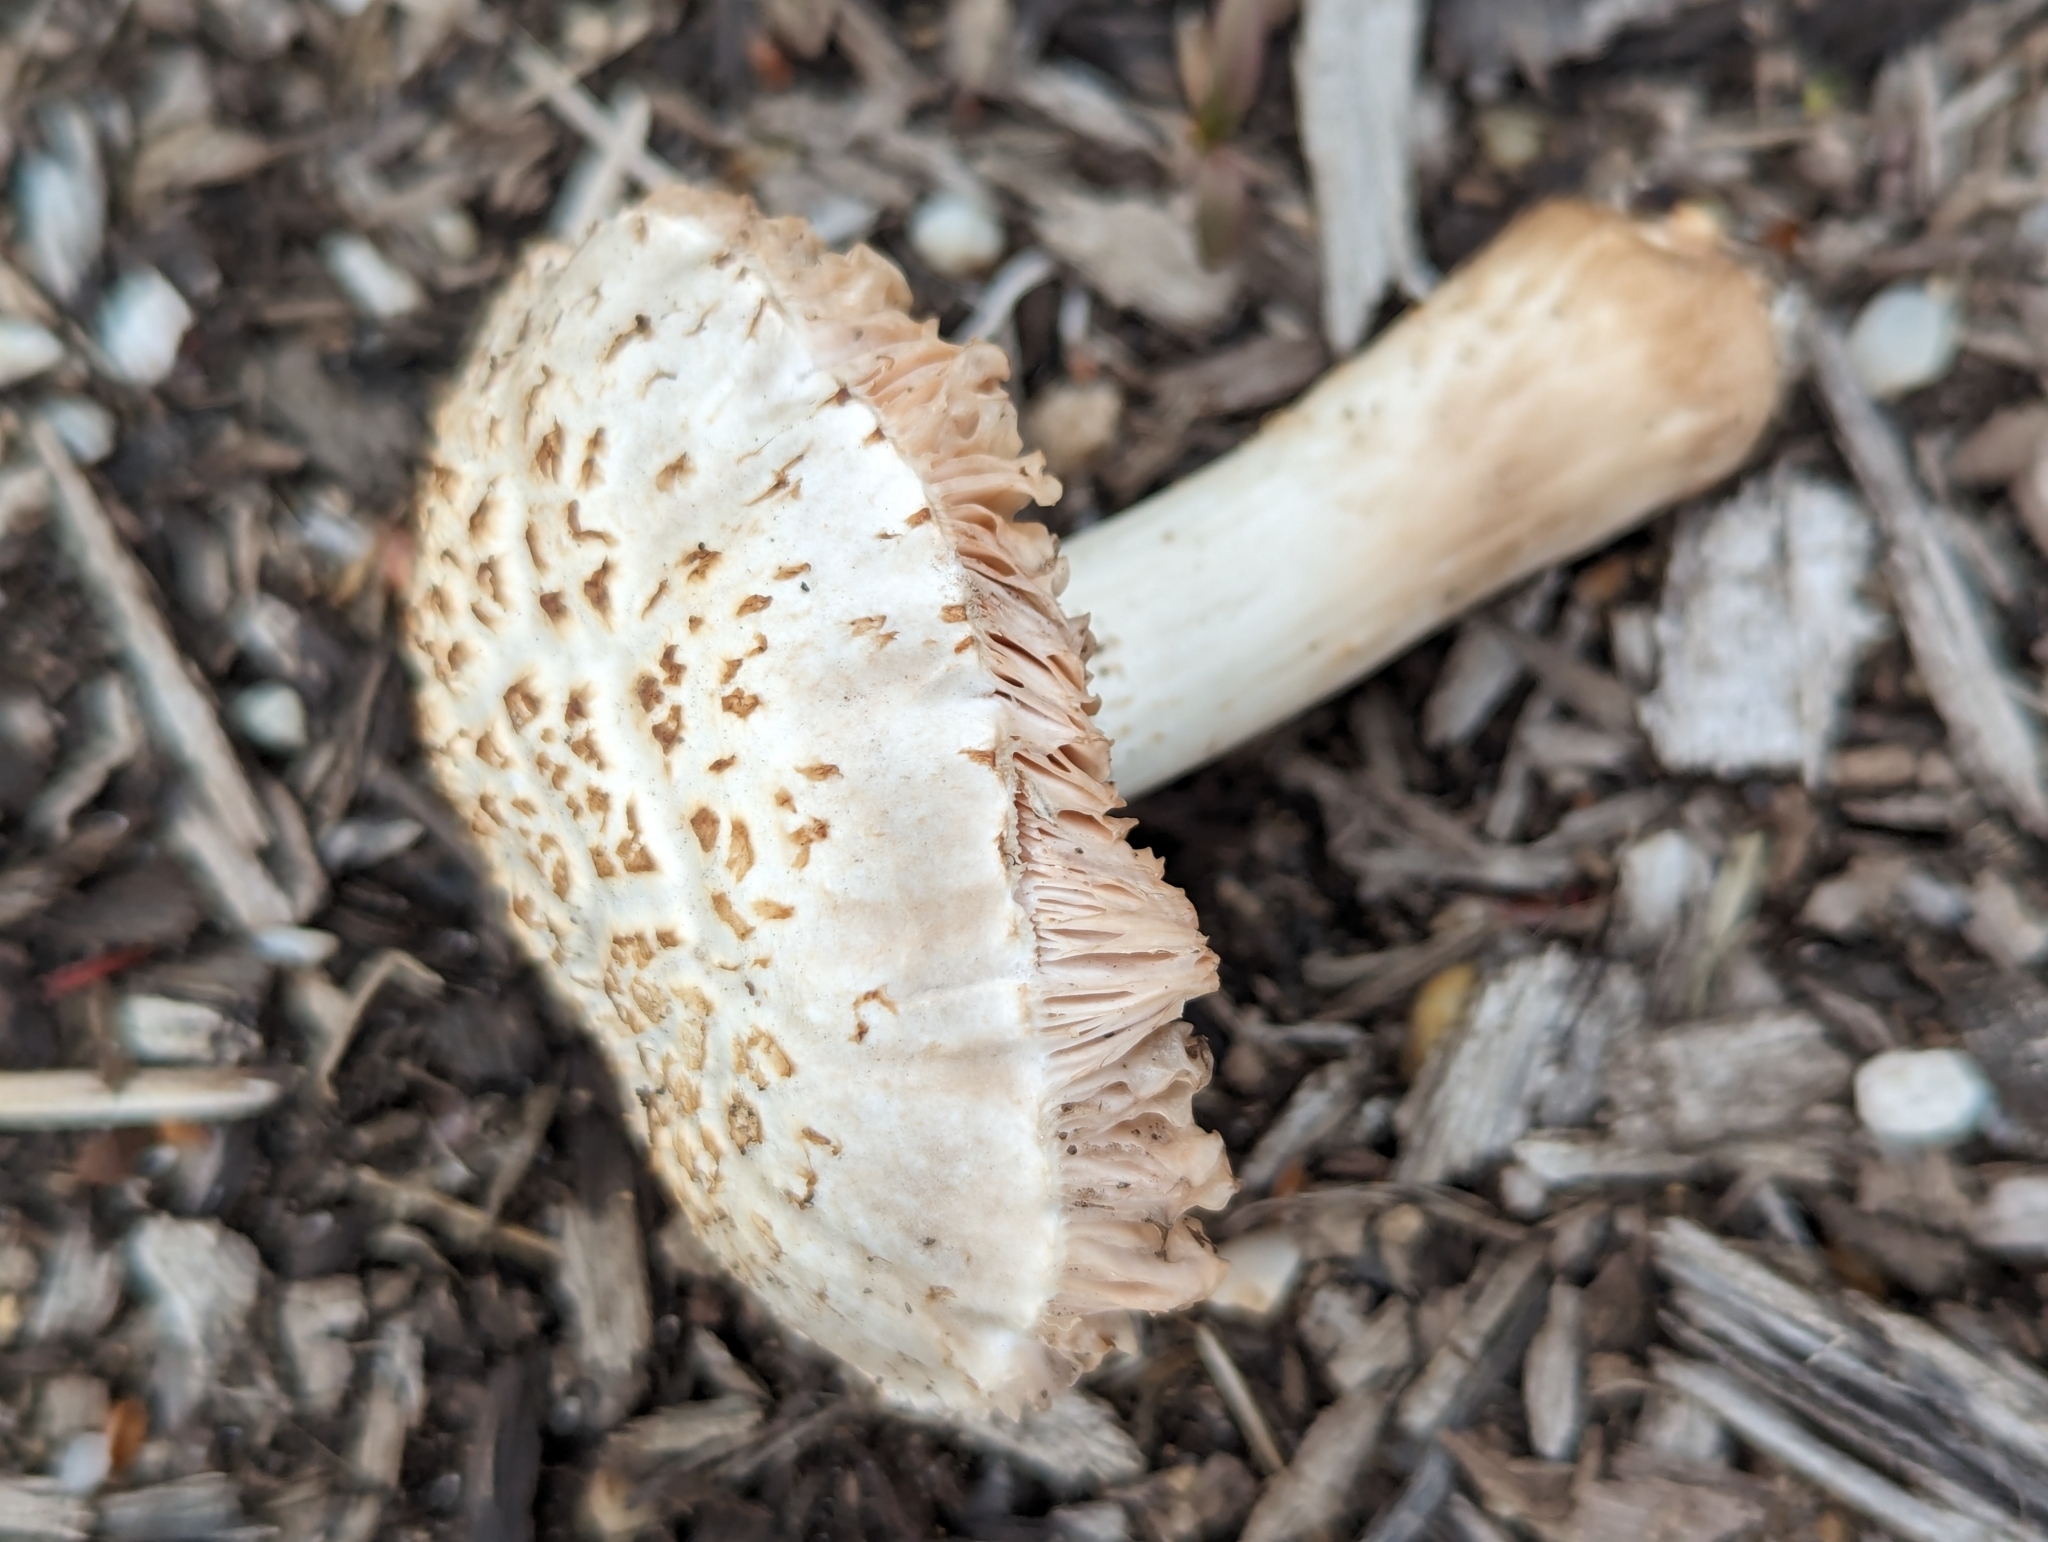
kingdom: Fungi
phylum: Basidiomycota
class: Agaricomycetes
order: Agaricales
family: Pluteaceae
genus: Pluteus
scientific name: Pluteus petasatus
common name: Scaly shield
